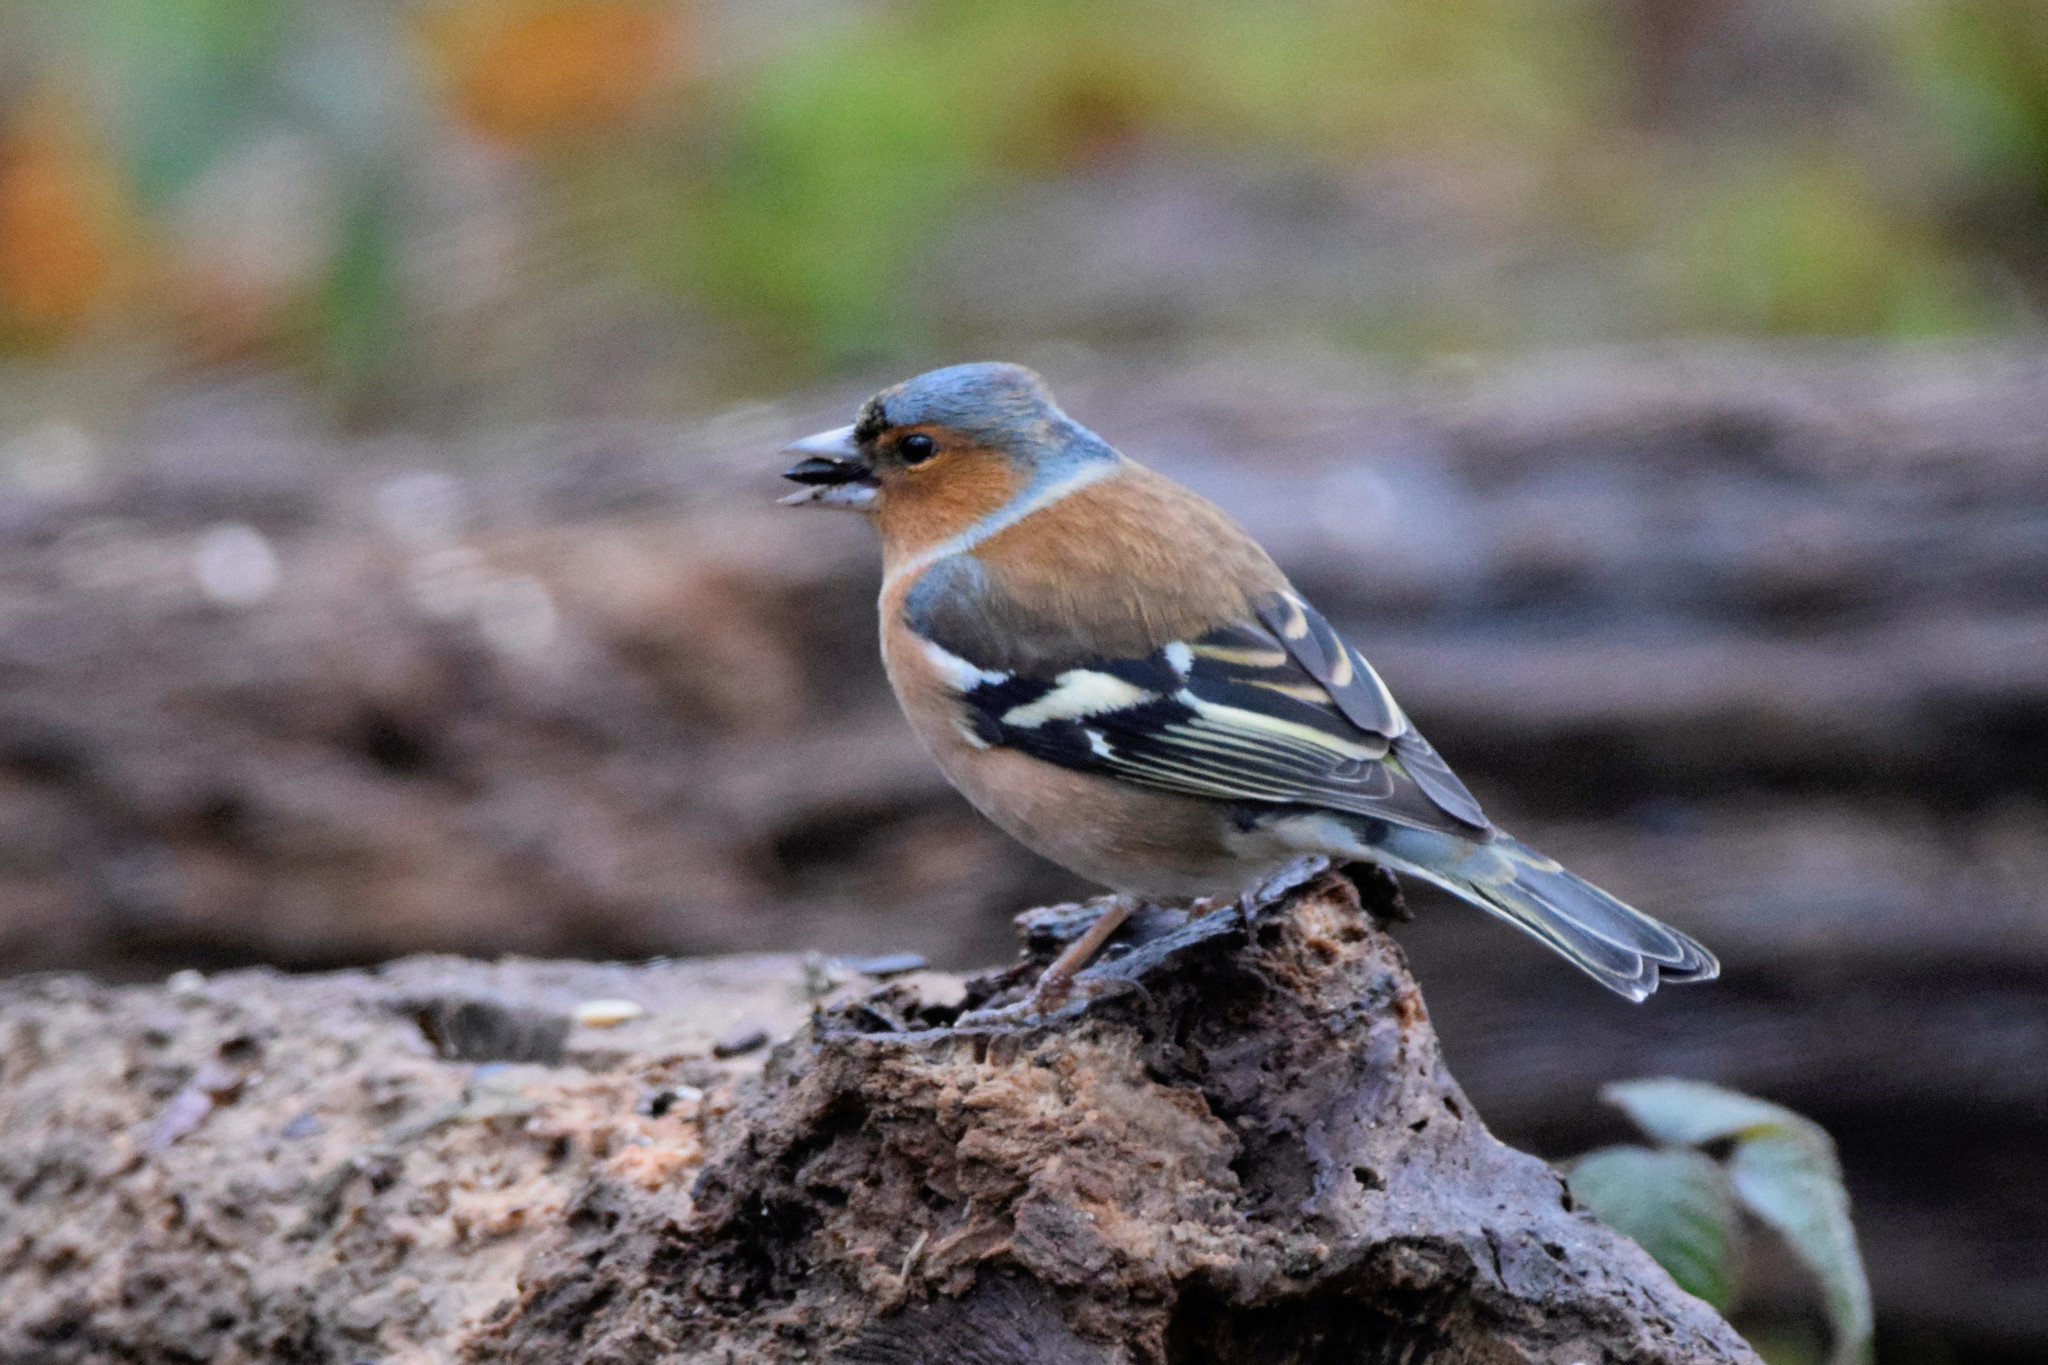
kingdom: Animalia
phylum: Chordata
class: Aves
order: Passeriformes
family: Fringillidae
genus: Fringilla
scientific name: Fringilla coelebs
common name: Common chaffinch
